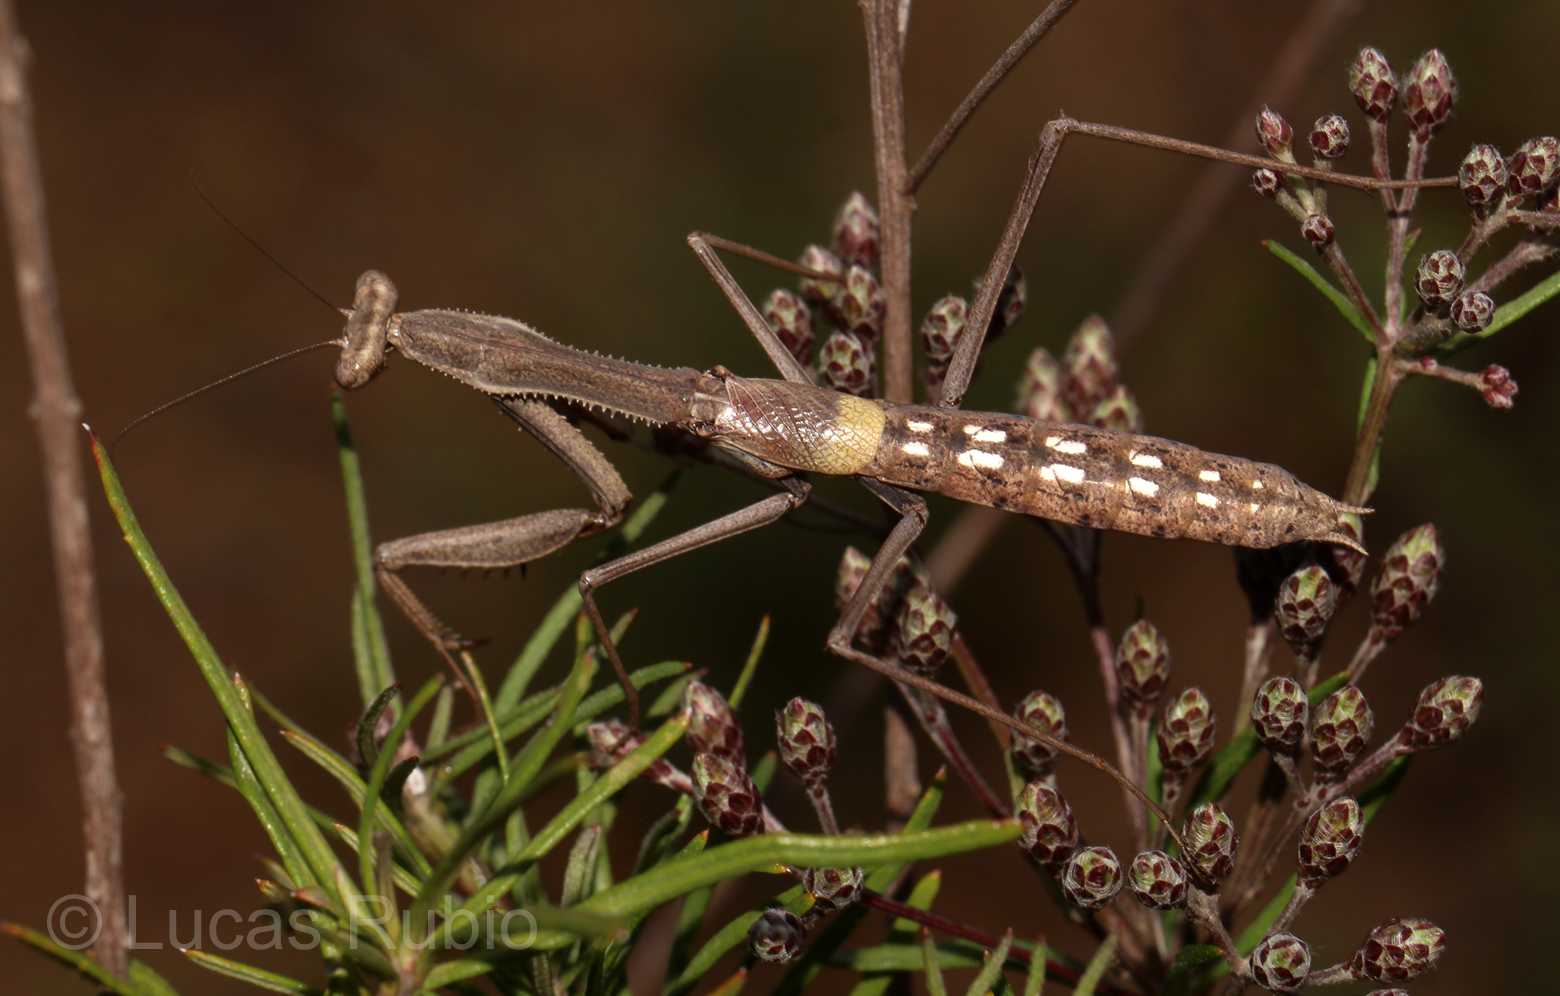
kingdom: Animalia
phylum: Arthropoda
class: Insecta
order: Mantodea
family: Coptopterygidae
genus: Coptopteryx
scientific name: Coptopteryx gayi
